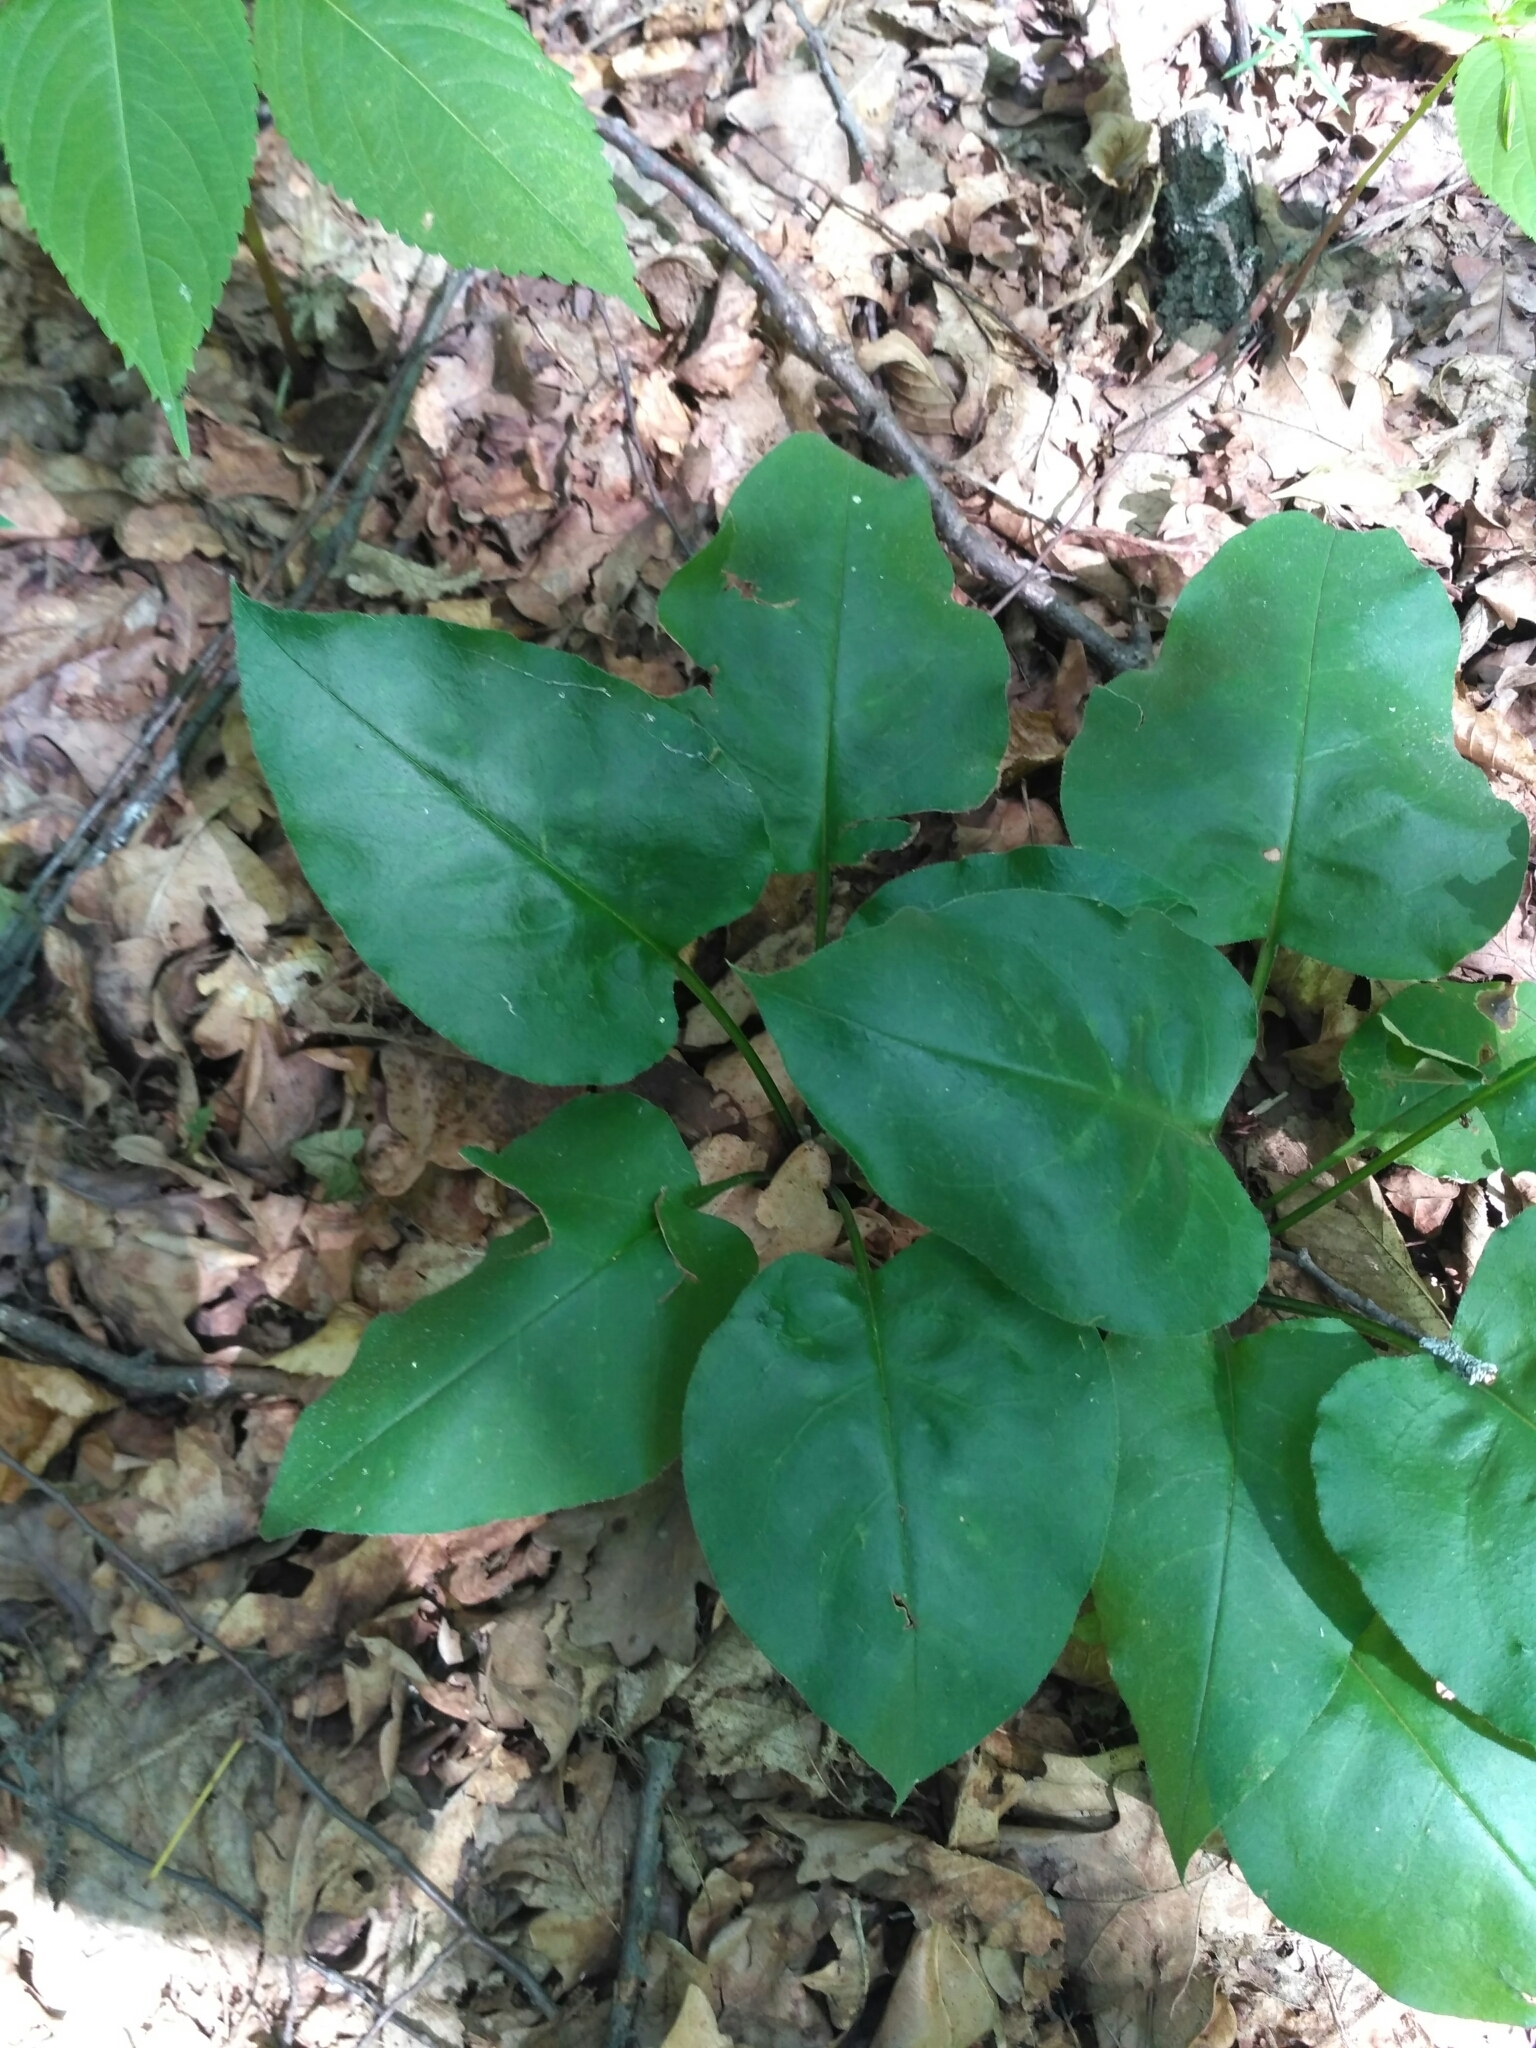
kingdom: Plantae
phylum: Tracheophyta
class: Magnoliopsida
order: Boraginales
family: Boraginaceae
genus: Pulmonaria
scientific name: Pulmonaria obscura
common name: Suffolk lungwort
